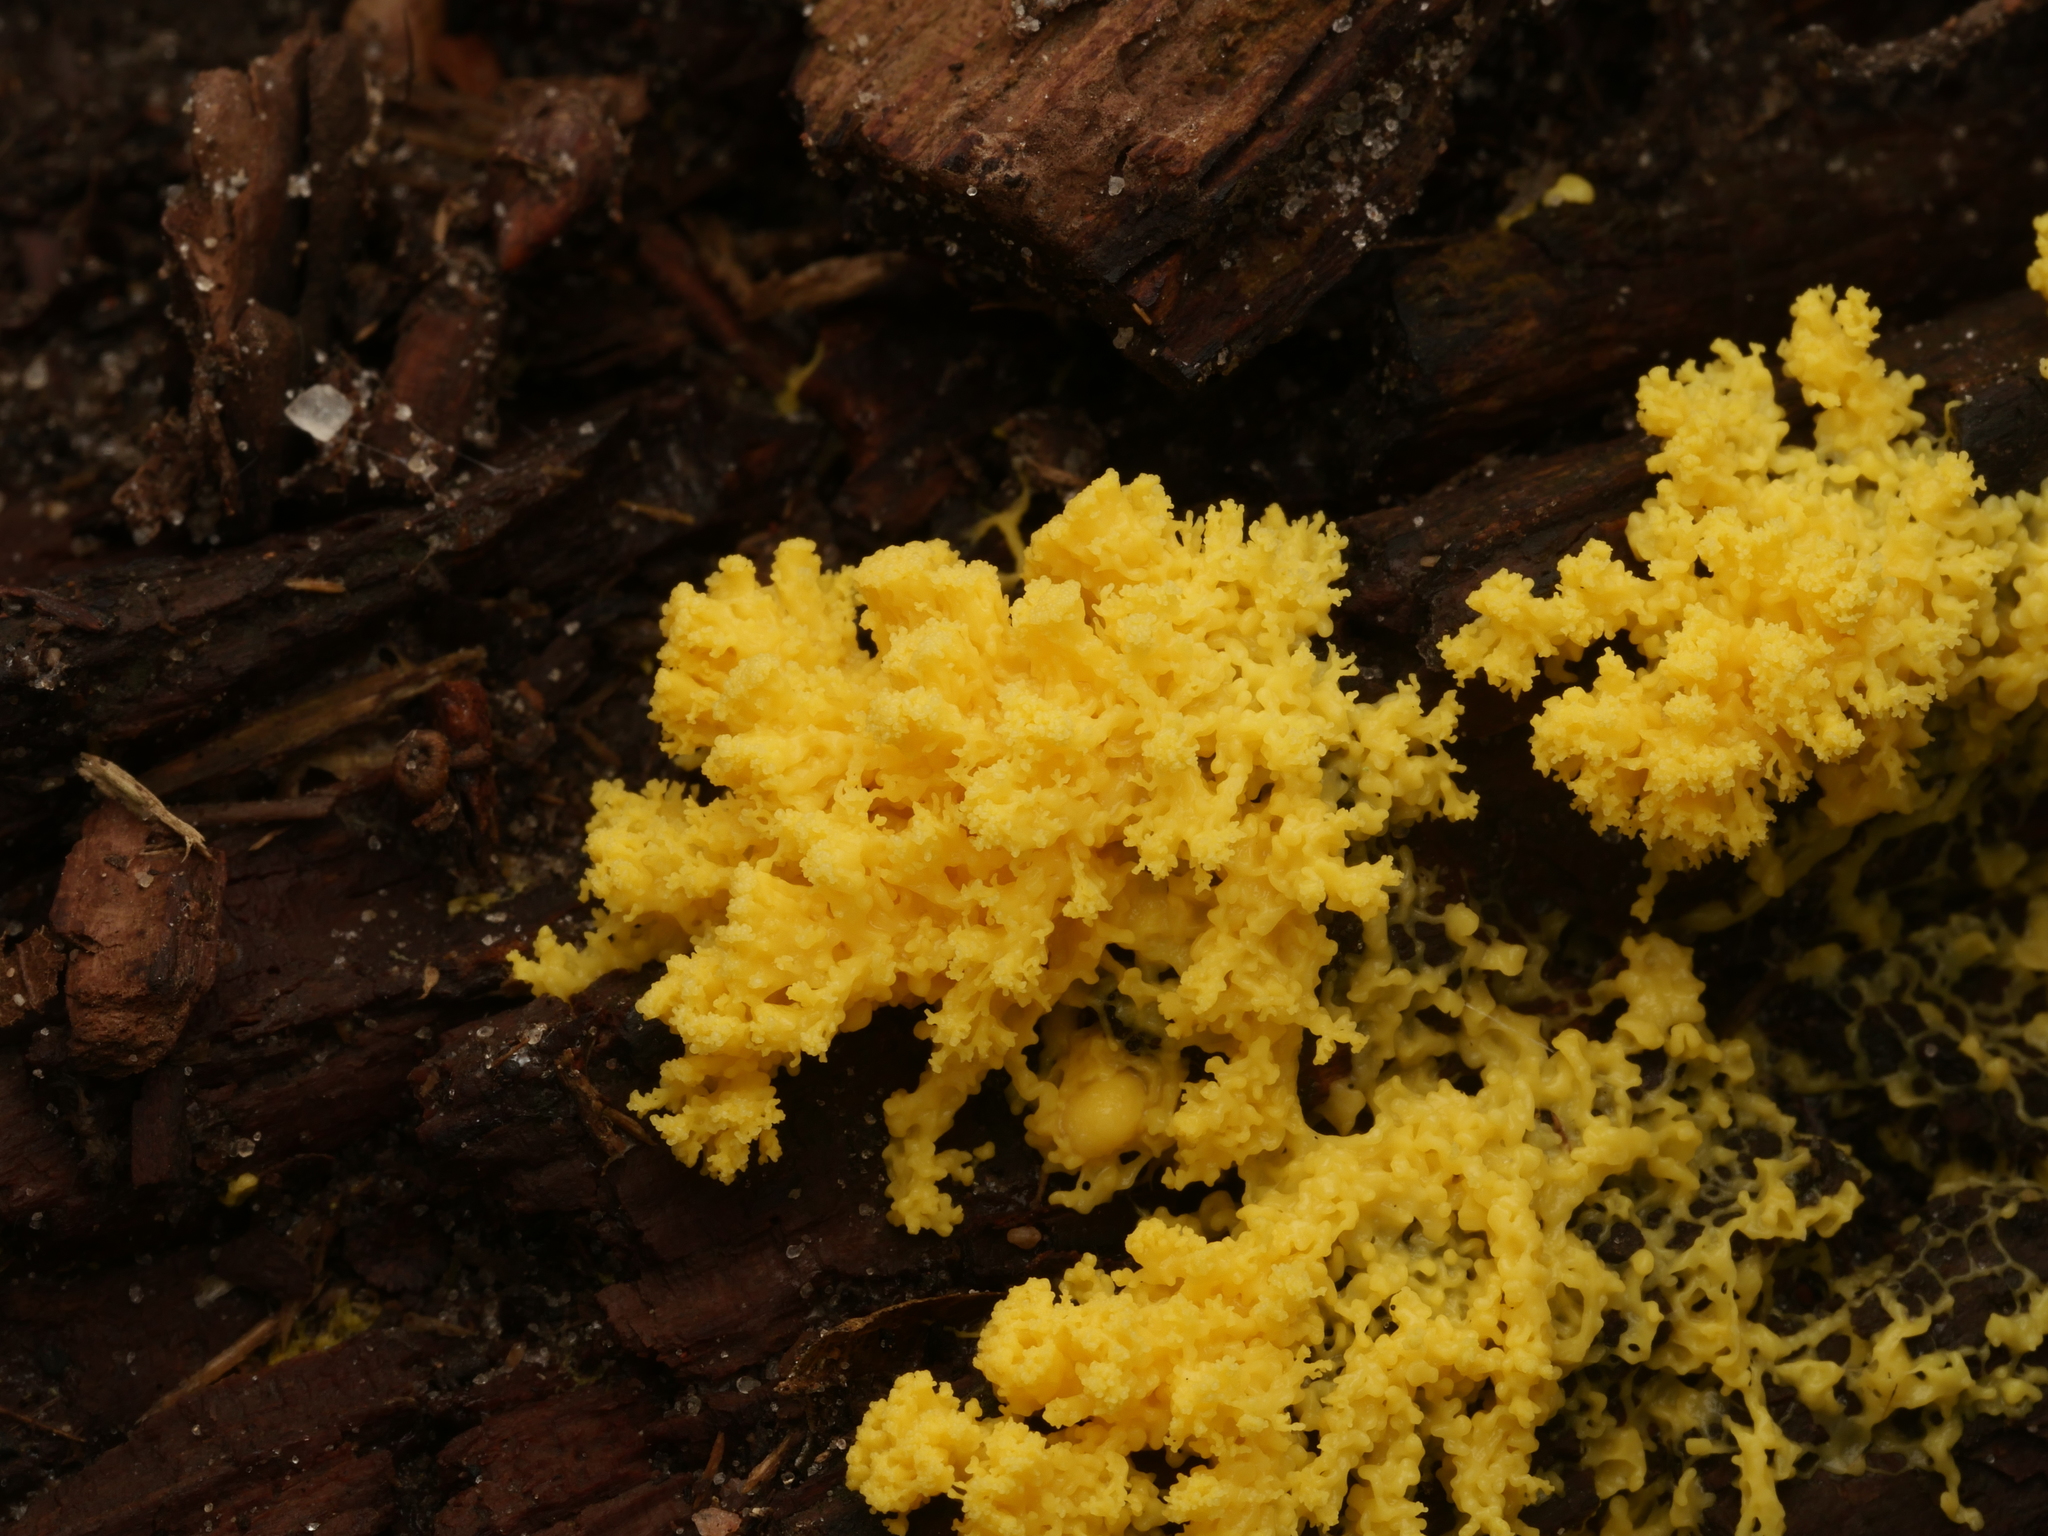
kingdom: Protozoa
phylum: Mycetozoa
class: Myxomycetes
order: Physarales
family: Physaraceae
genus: Fuligo
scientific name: Fuligo septica
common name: Dog vomit slime mold
